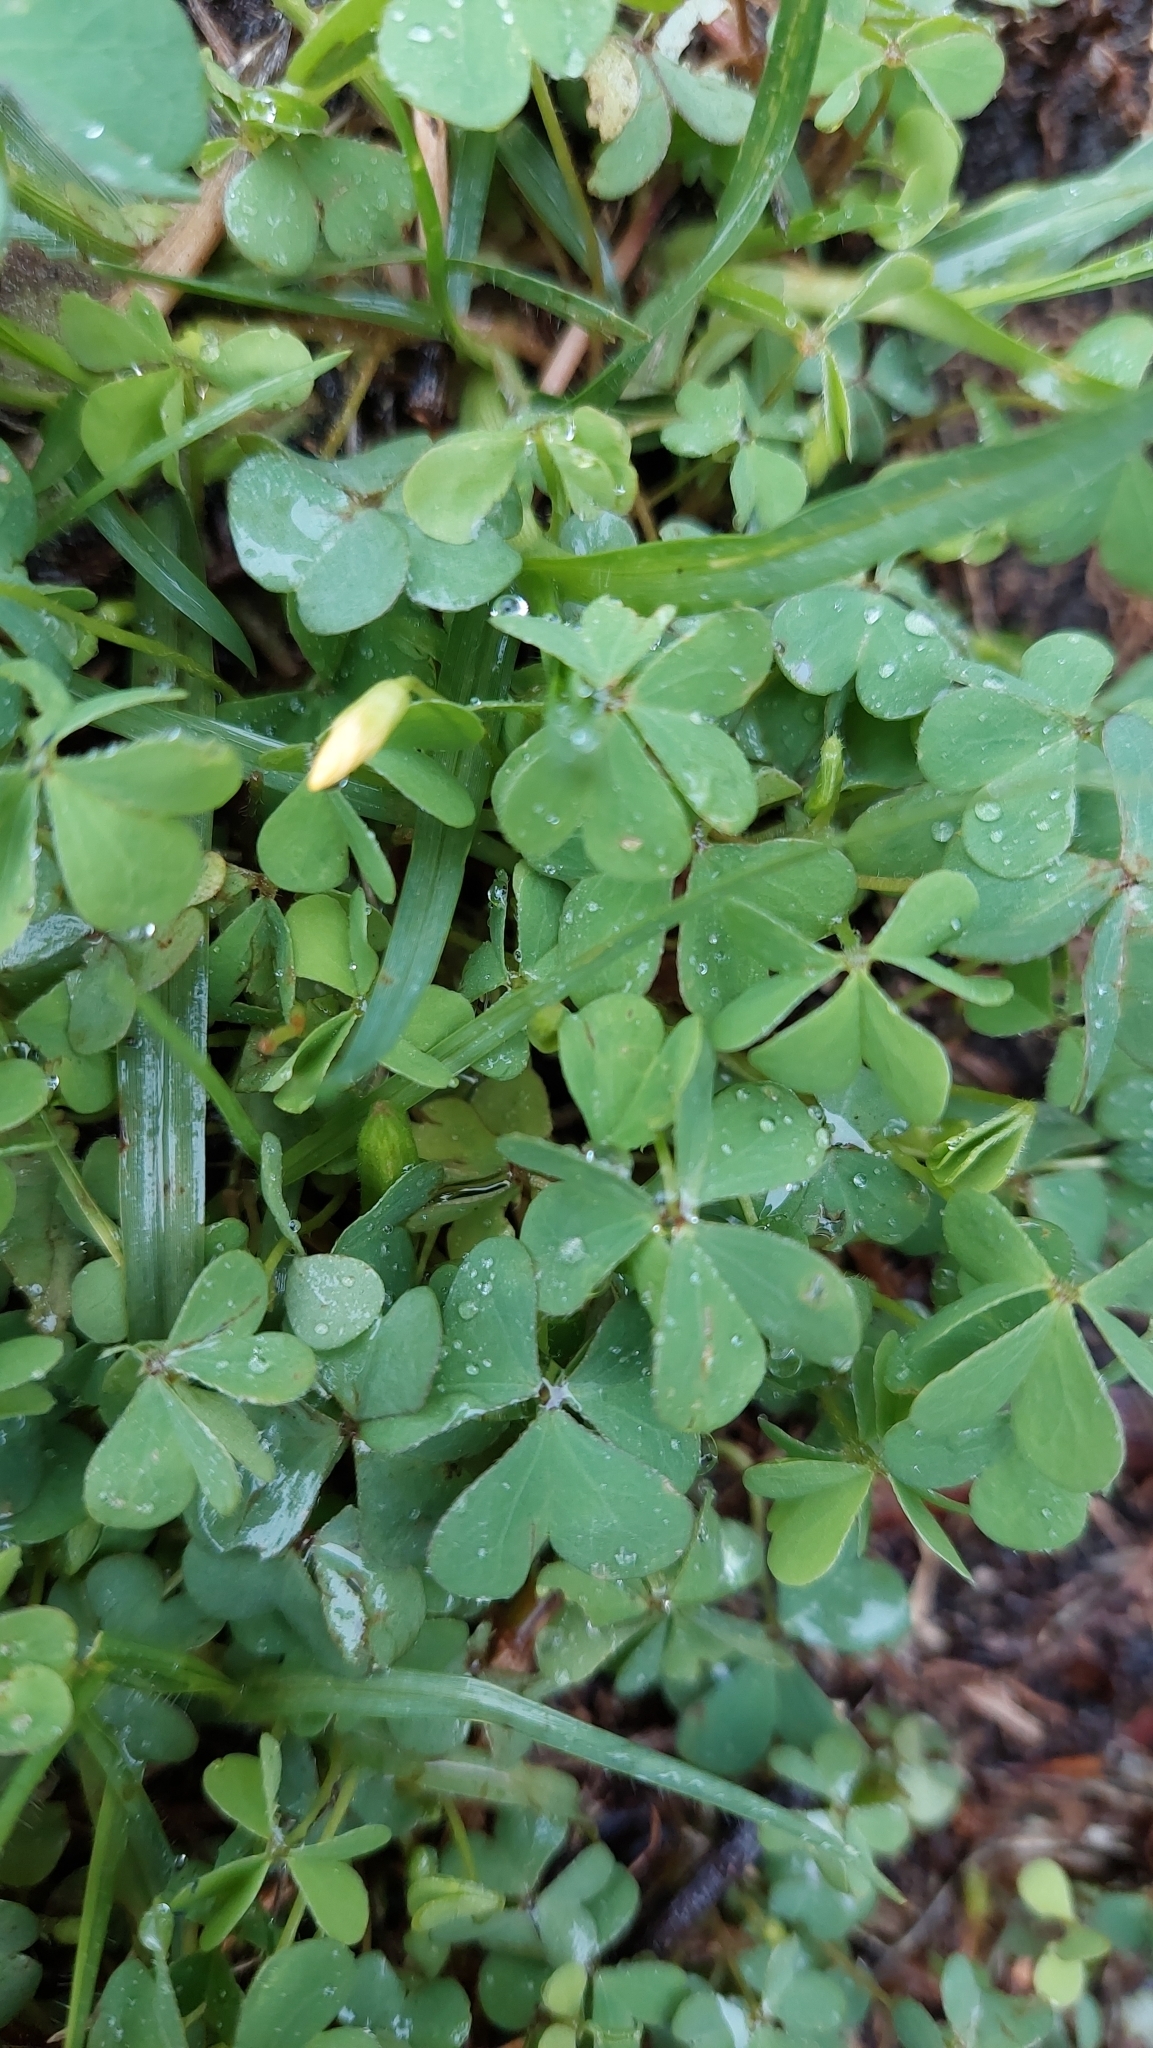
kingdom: Plantae
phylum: Tracheophyta
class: Magnoliopsida
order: Oxalidales
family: Oxalidaceae
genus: Oxalis
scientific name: Oxalis corniculata
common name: Procumbent yellow-sorrel
